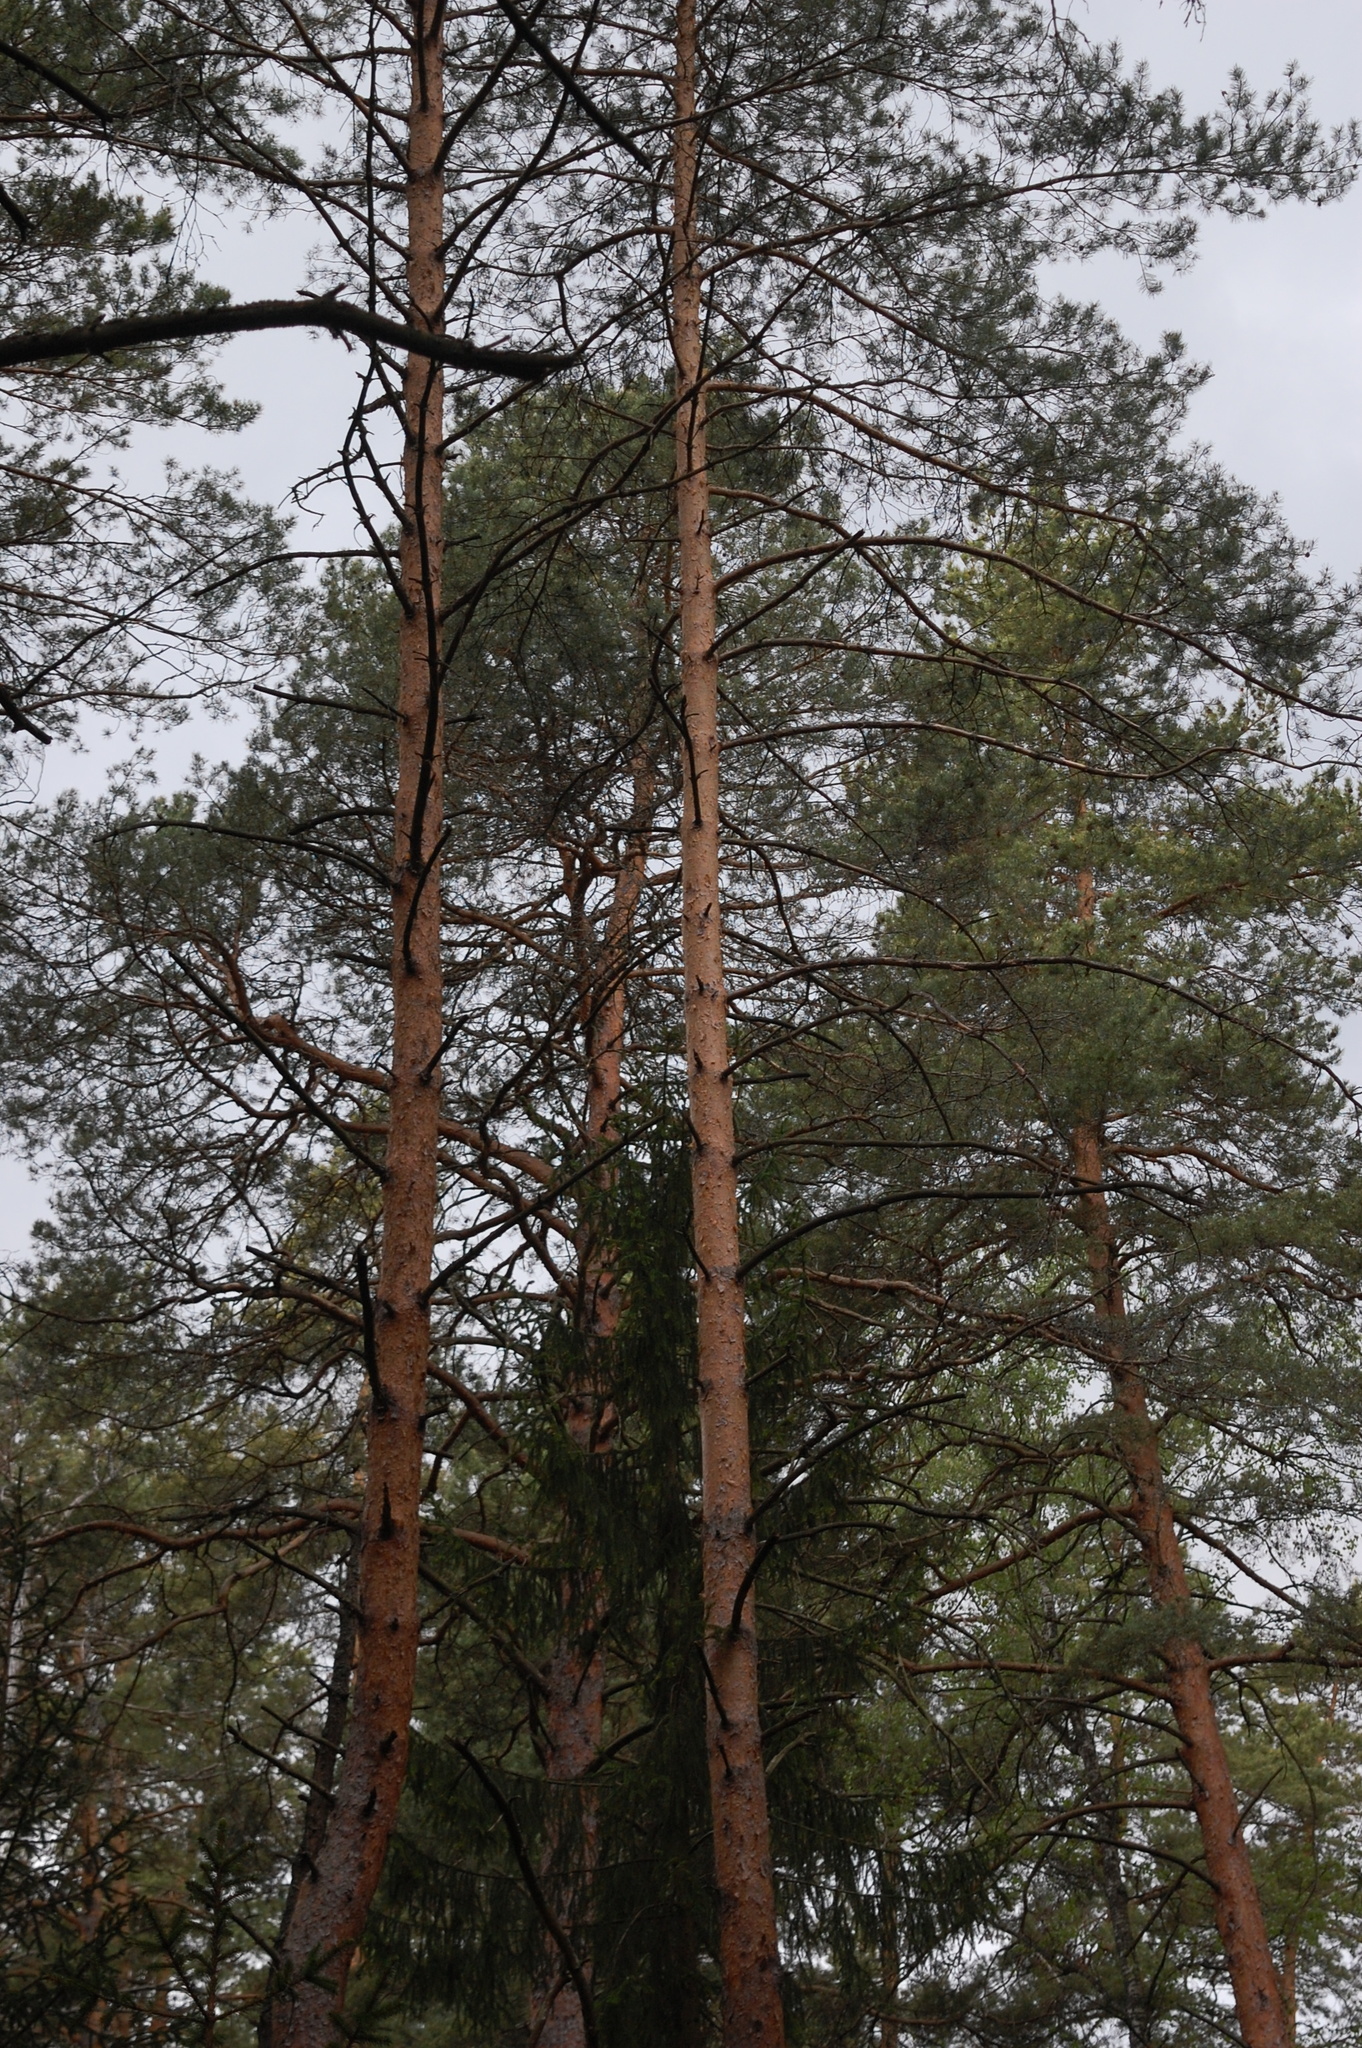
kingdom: Plantae
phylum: Tracheophyta
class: Pinopsida
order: Pinales
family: Pinaceae
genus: Pinus
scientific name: Pinus sylvestris
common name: Scots pine
